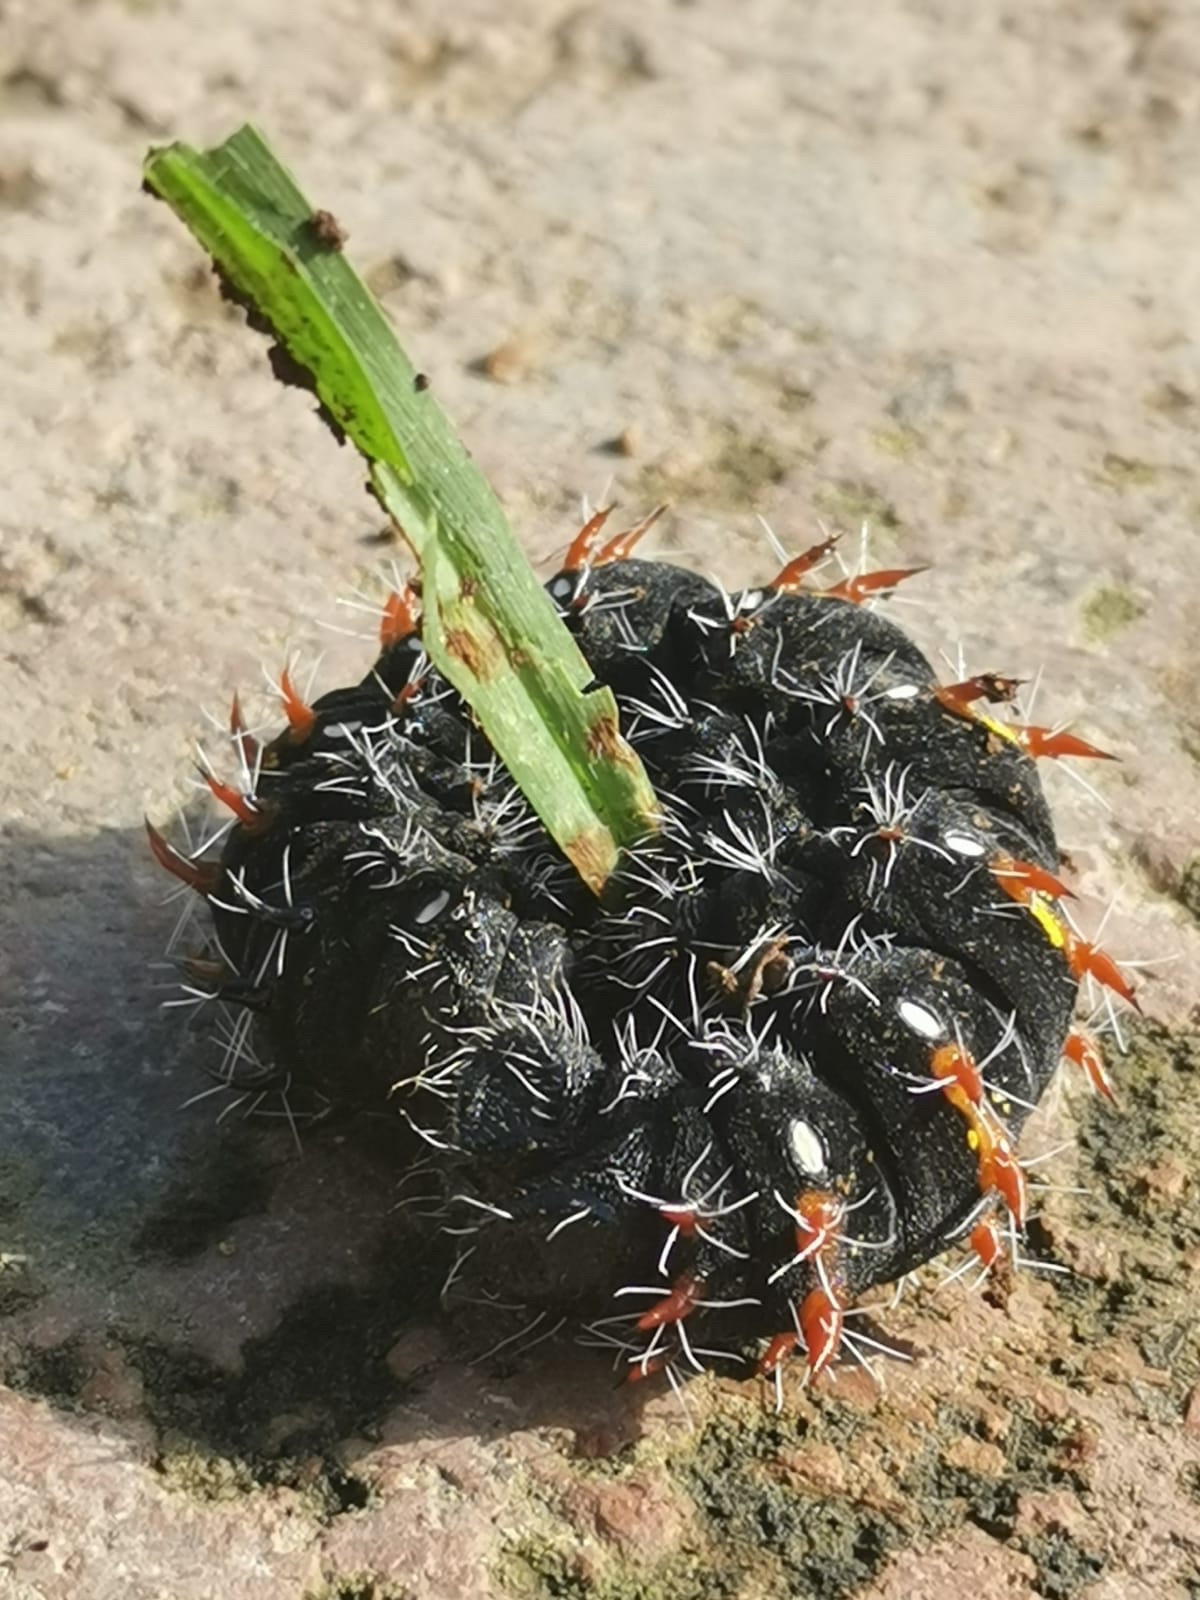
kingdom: Animalia
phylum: Arthropoda
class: Insecta
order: Lepidoptera
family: Saturniidae
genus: Nudaurelia
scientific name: Nudaurelia wahlbergi
